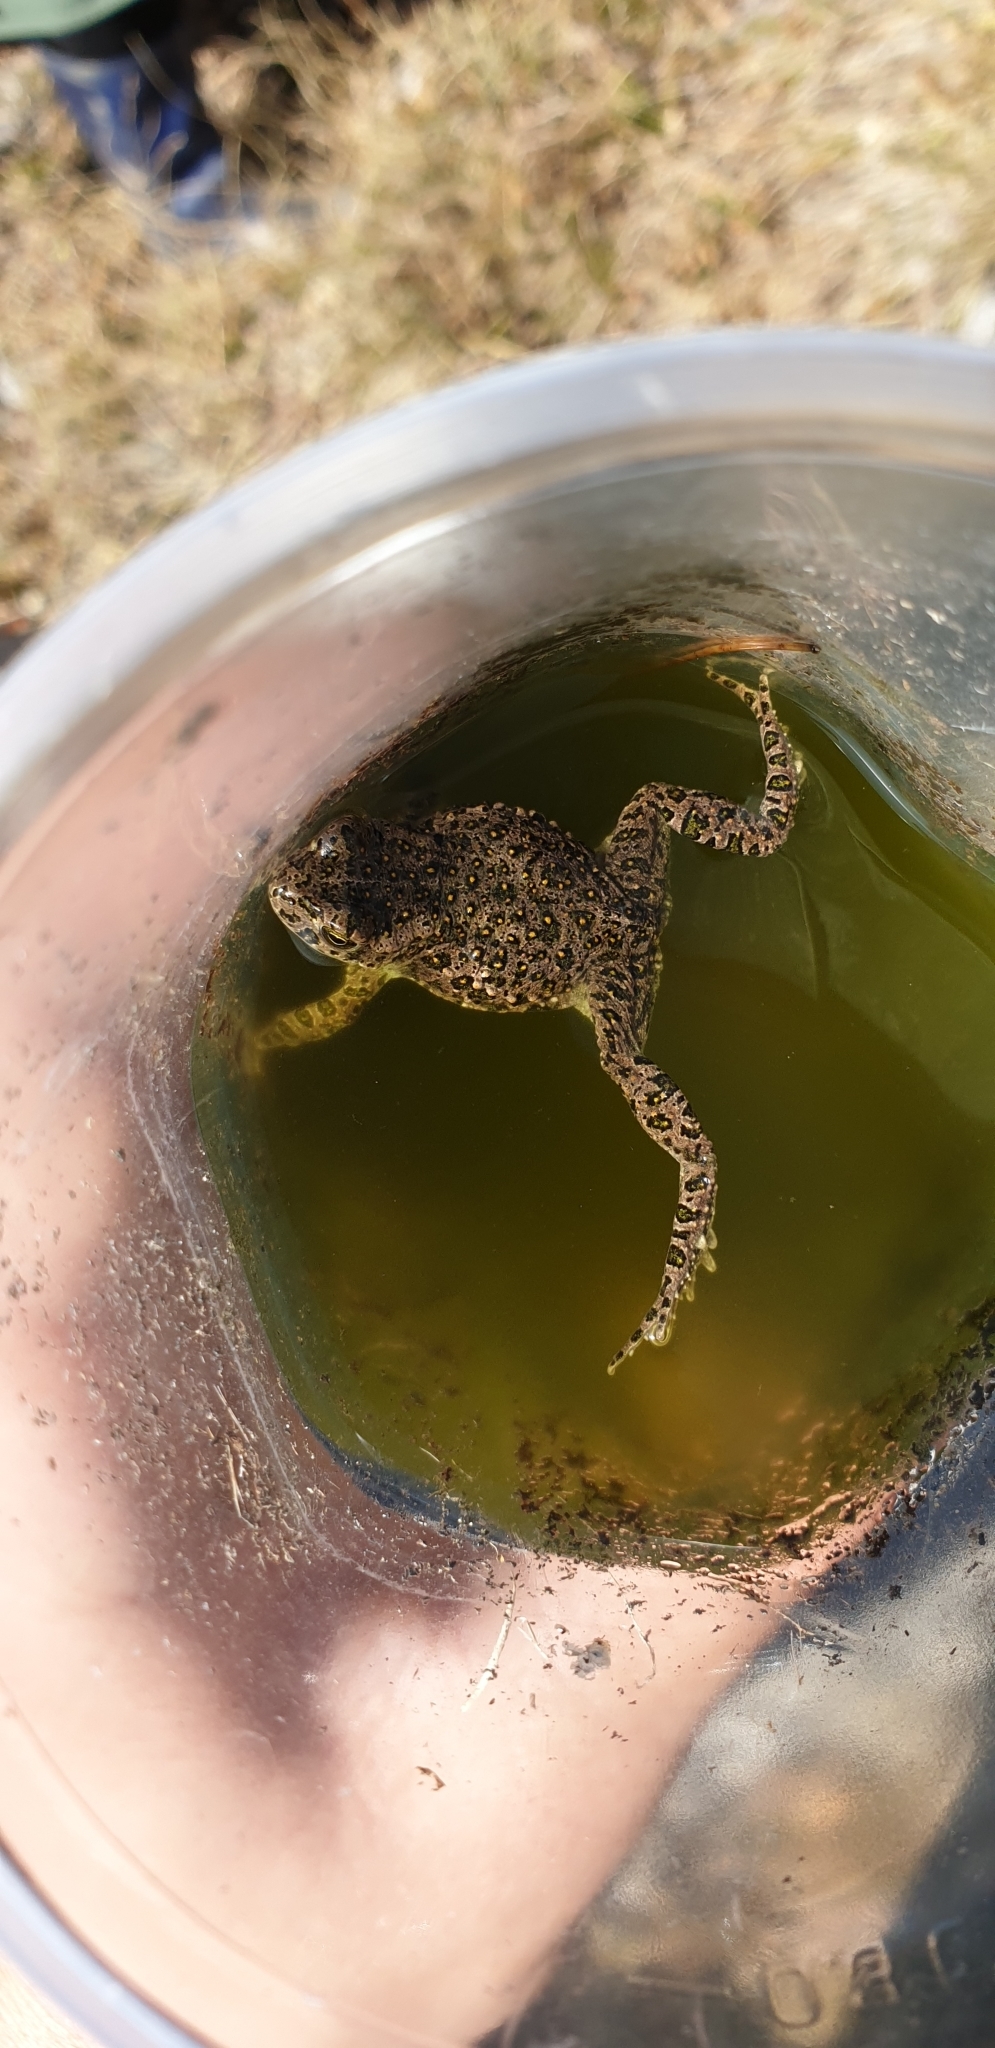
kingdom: Animalia
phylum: Chordata
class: Amphibia
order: Anura
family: Bufonidae
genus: Bufotes
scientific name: Bufotes viridis
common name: European green toad
